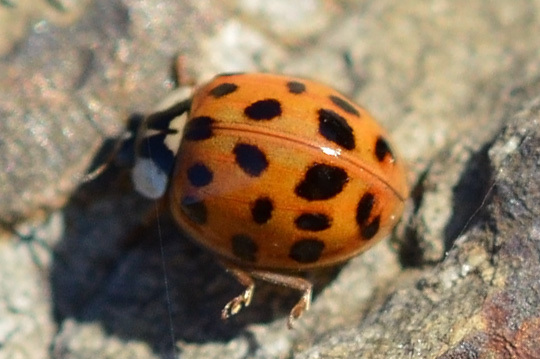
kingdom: Animalia
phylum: Arthropoda
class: Insecta
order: Coleoptera
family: Coccinellidae
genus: Harmonia
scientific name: Harmonia axyridis
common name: Harlequin ladybird
